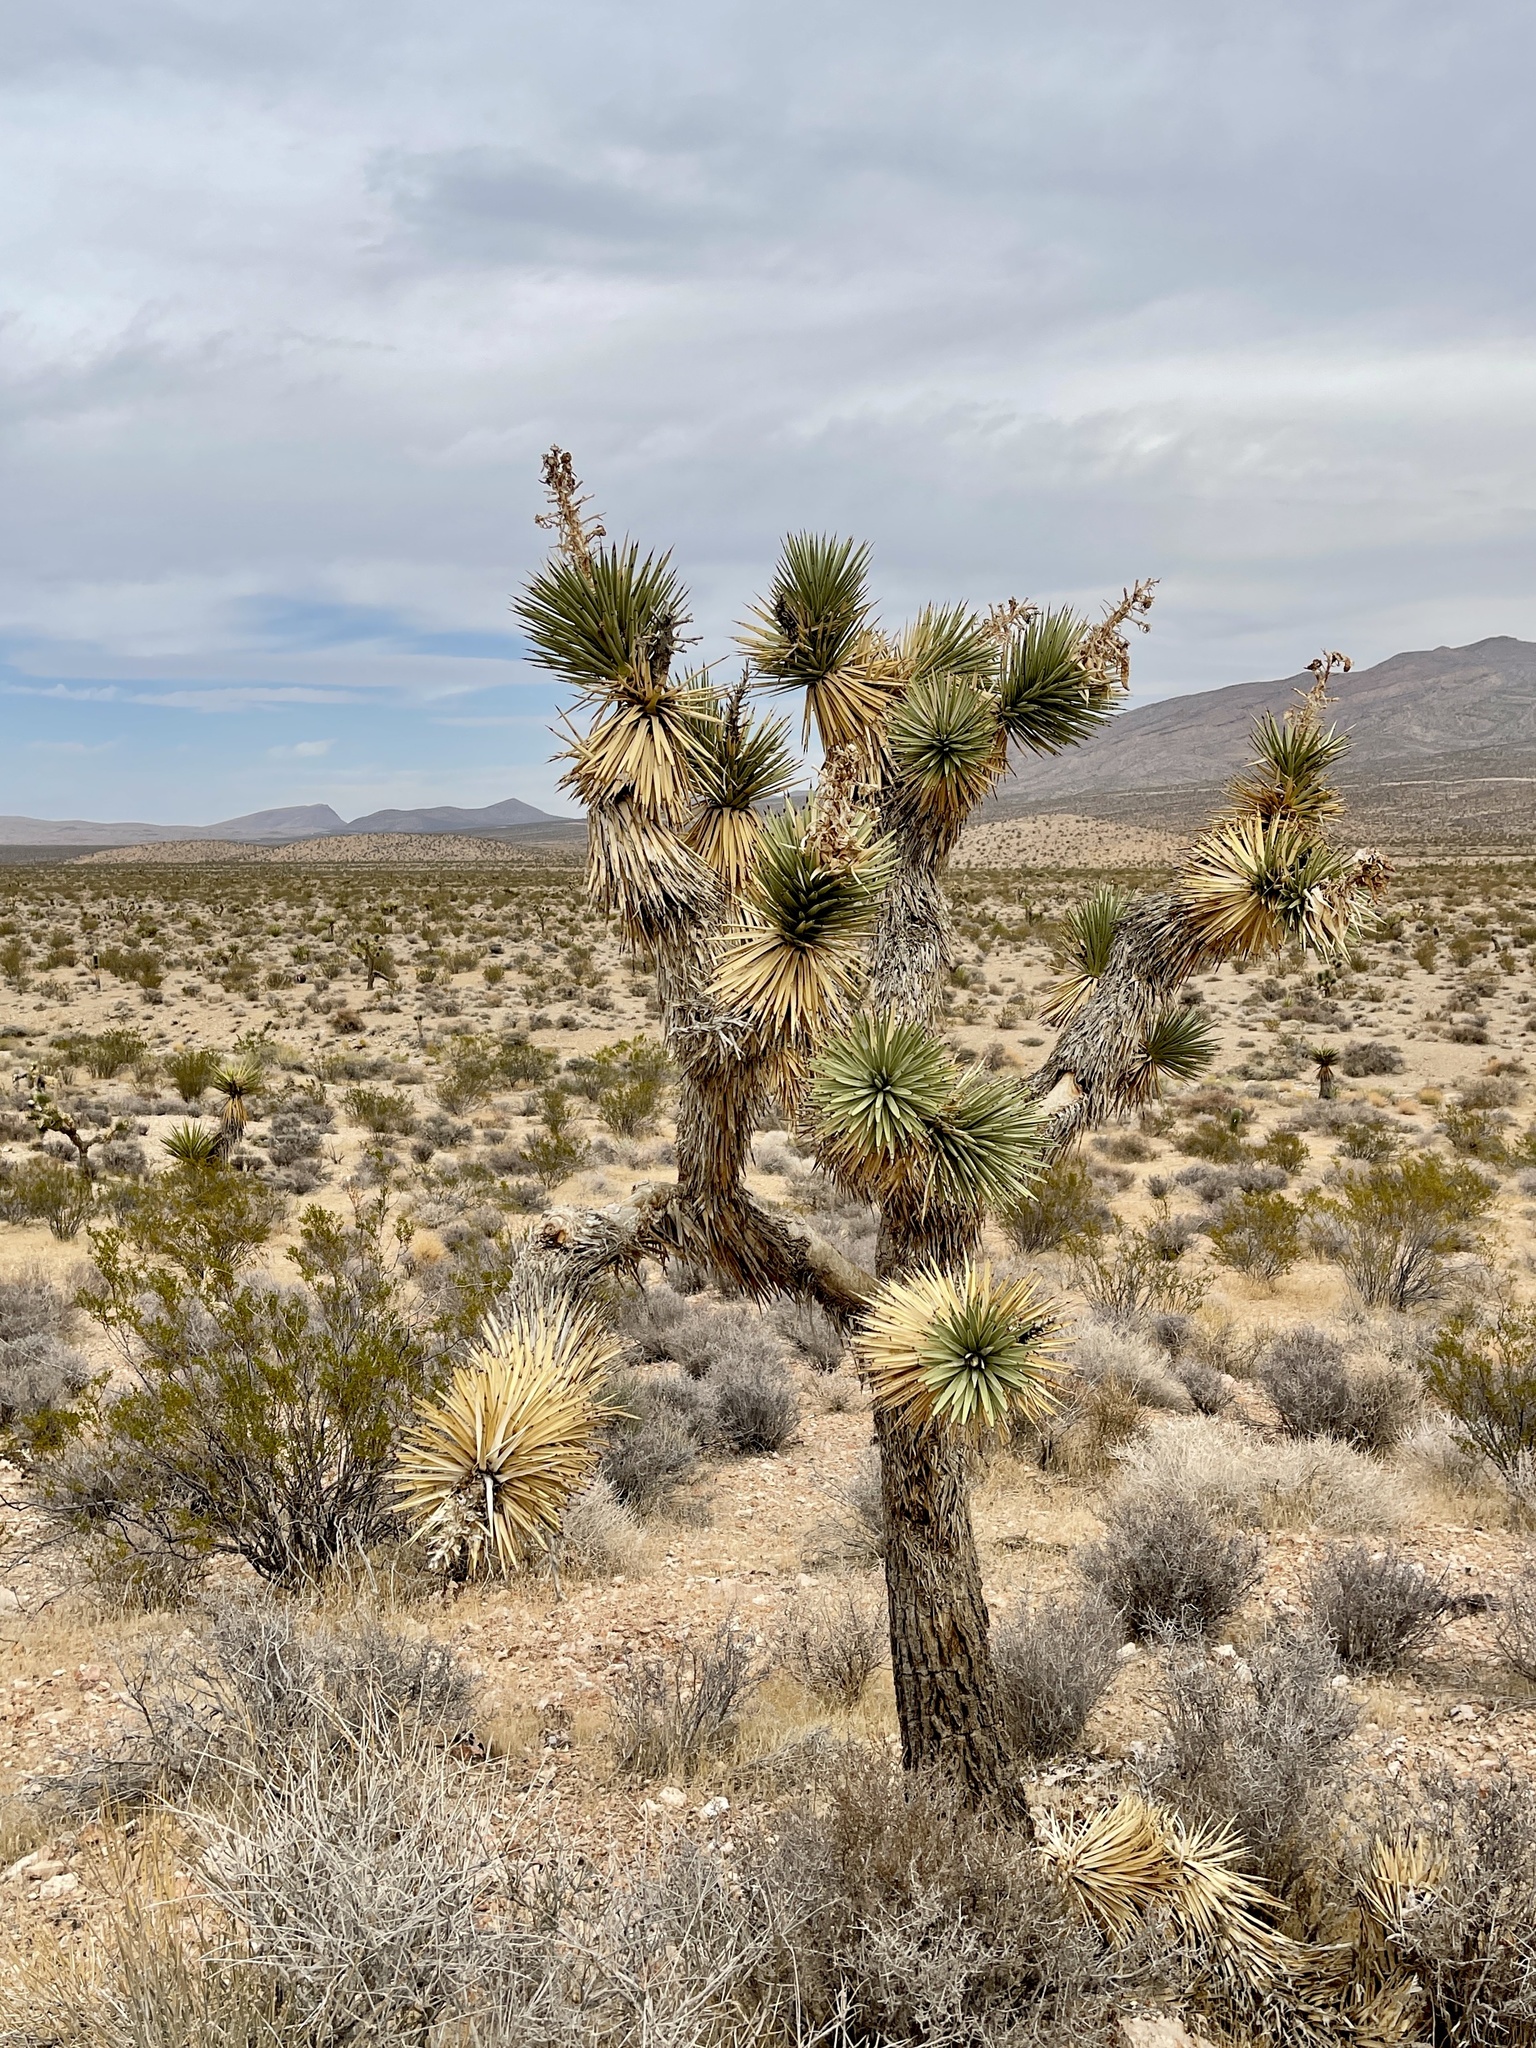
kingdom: Plantae
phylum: Tracheophyta
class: Liliopsida
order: Asparagales
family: Asparagaceae
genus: Yucca
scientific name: Yucca brevifolia
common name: Joshua tree
